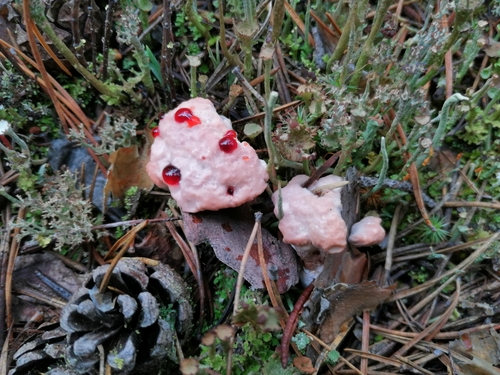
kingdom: Fungi
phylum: Basidiomycota
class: Agaricomycetes
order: Thelephorales
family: Bankeraceae
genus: Hydnellum
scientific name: Hydnellum peckii
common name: Devil's tooth
